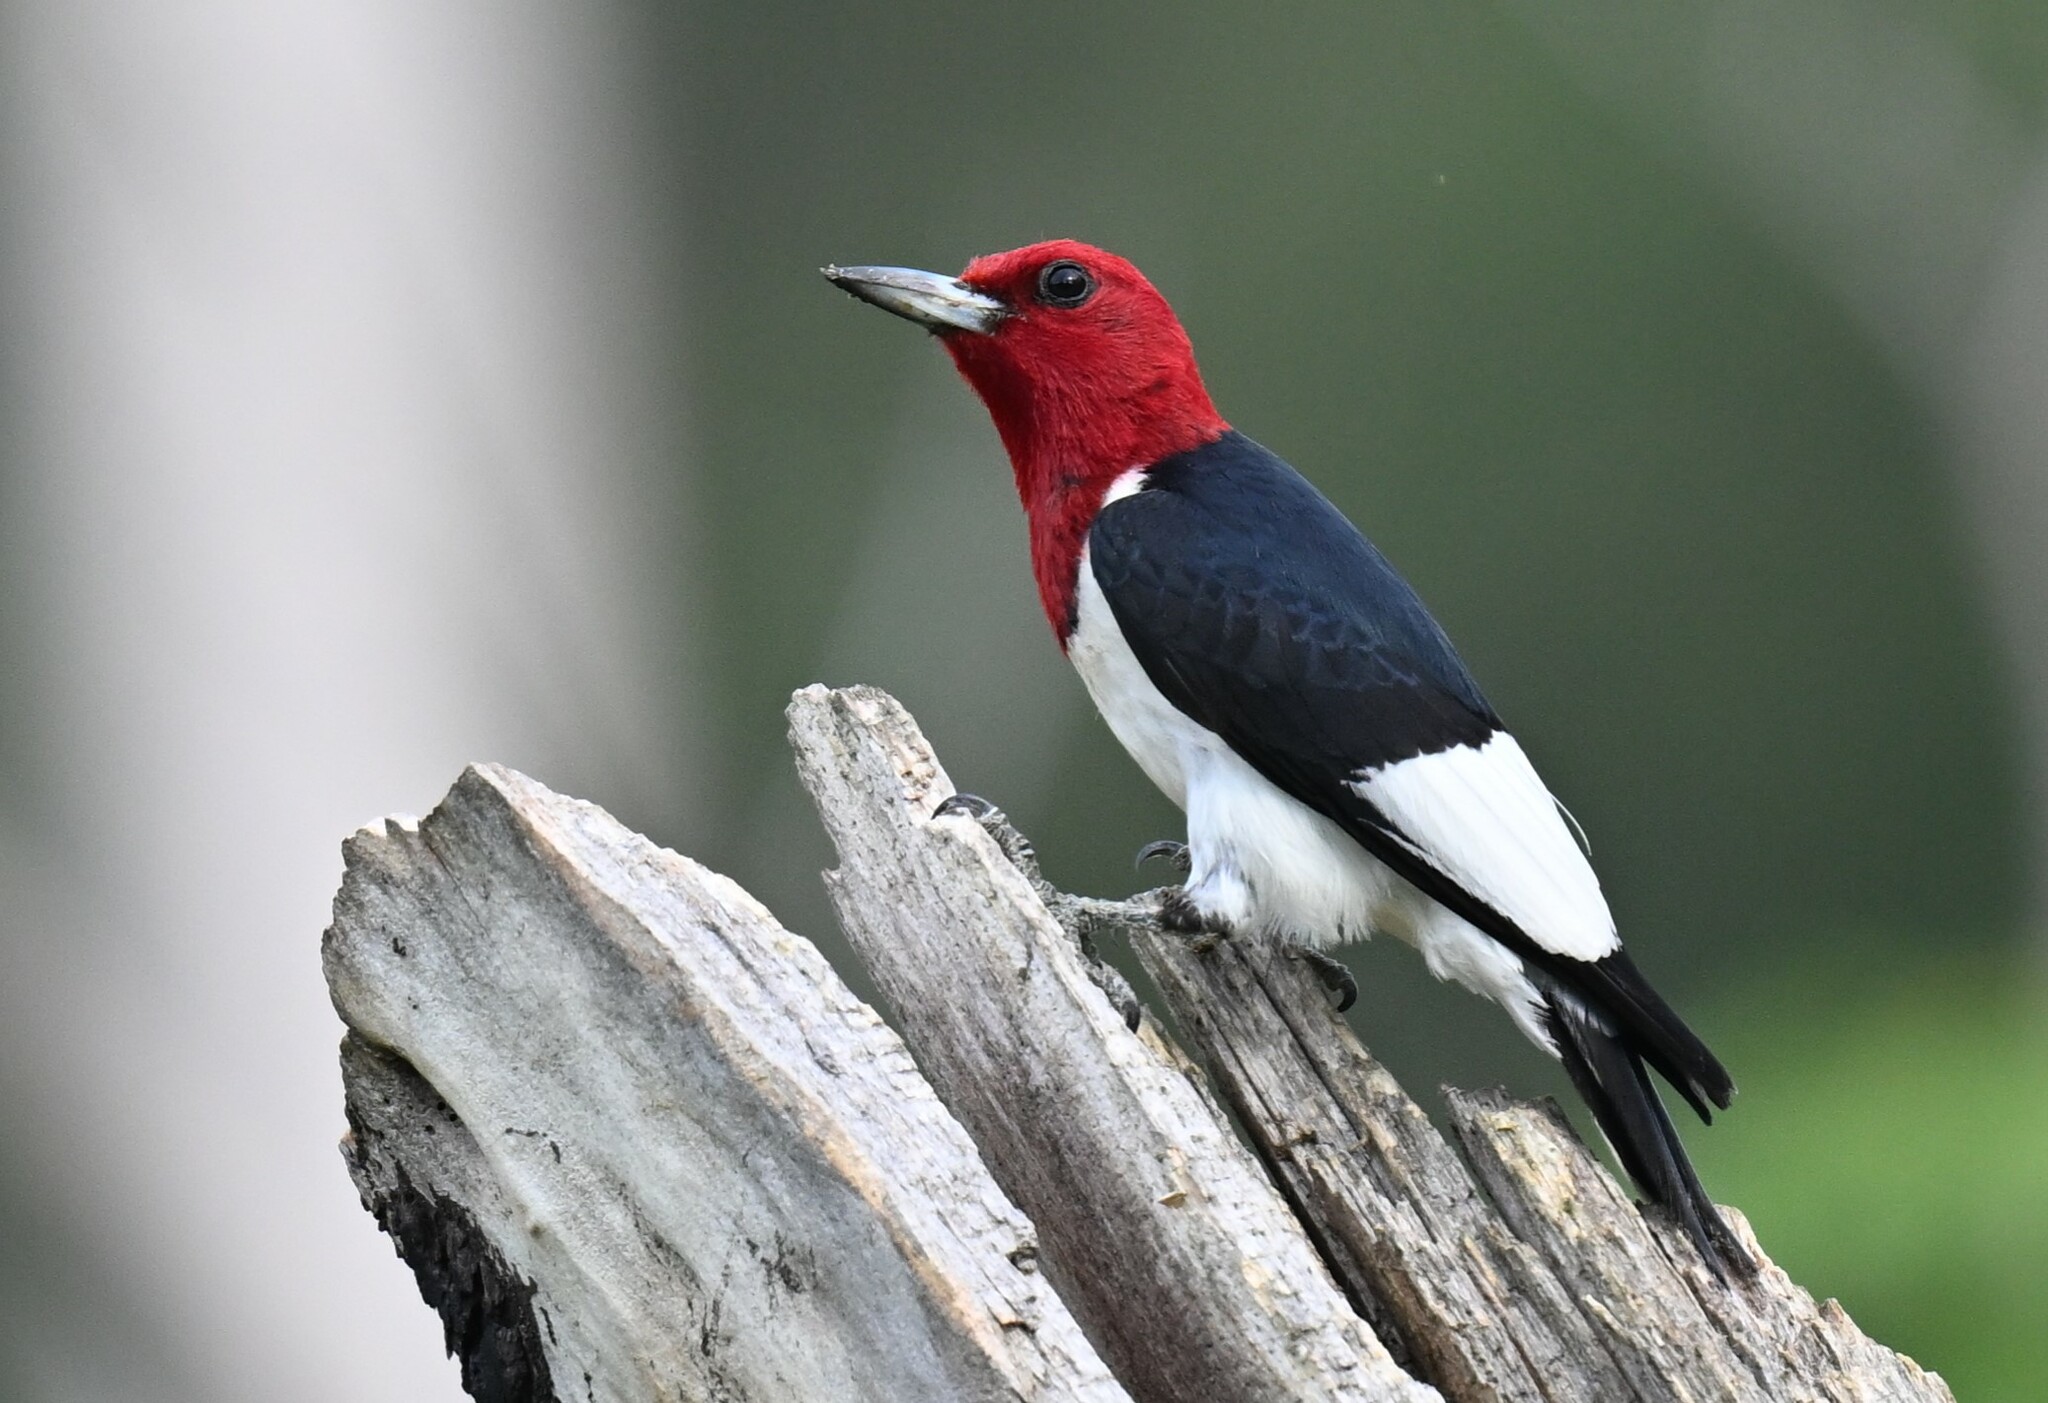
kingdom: Animalia
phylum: Chordata
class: Aves
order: Piciformes
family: Picidae
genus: Melanerpes
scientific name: Melanerpes erythrocephalus
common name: Red-headed woodpecker
